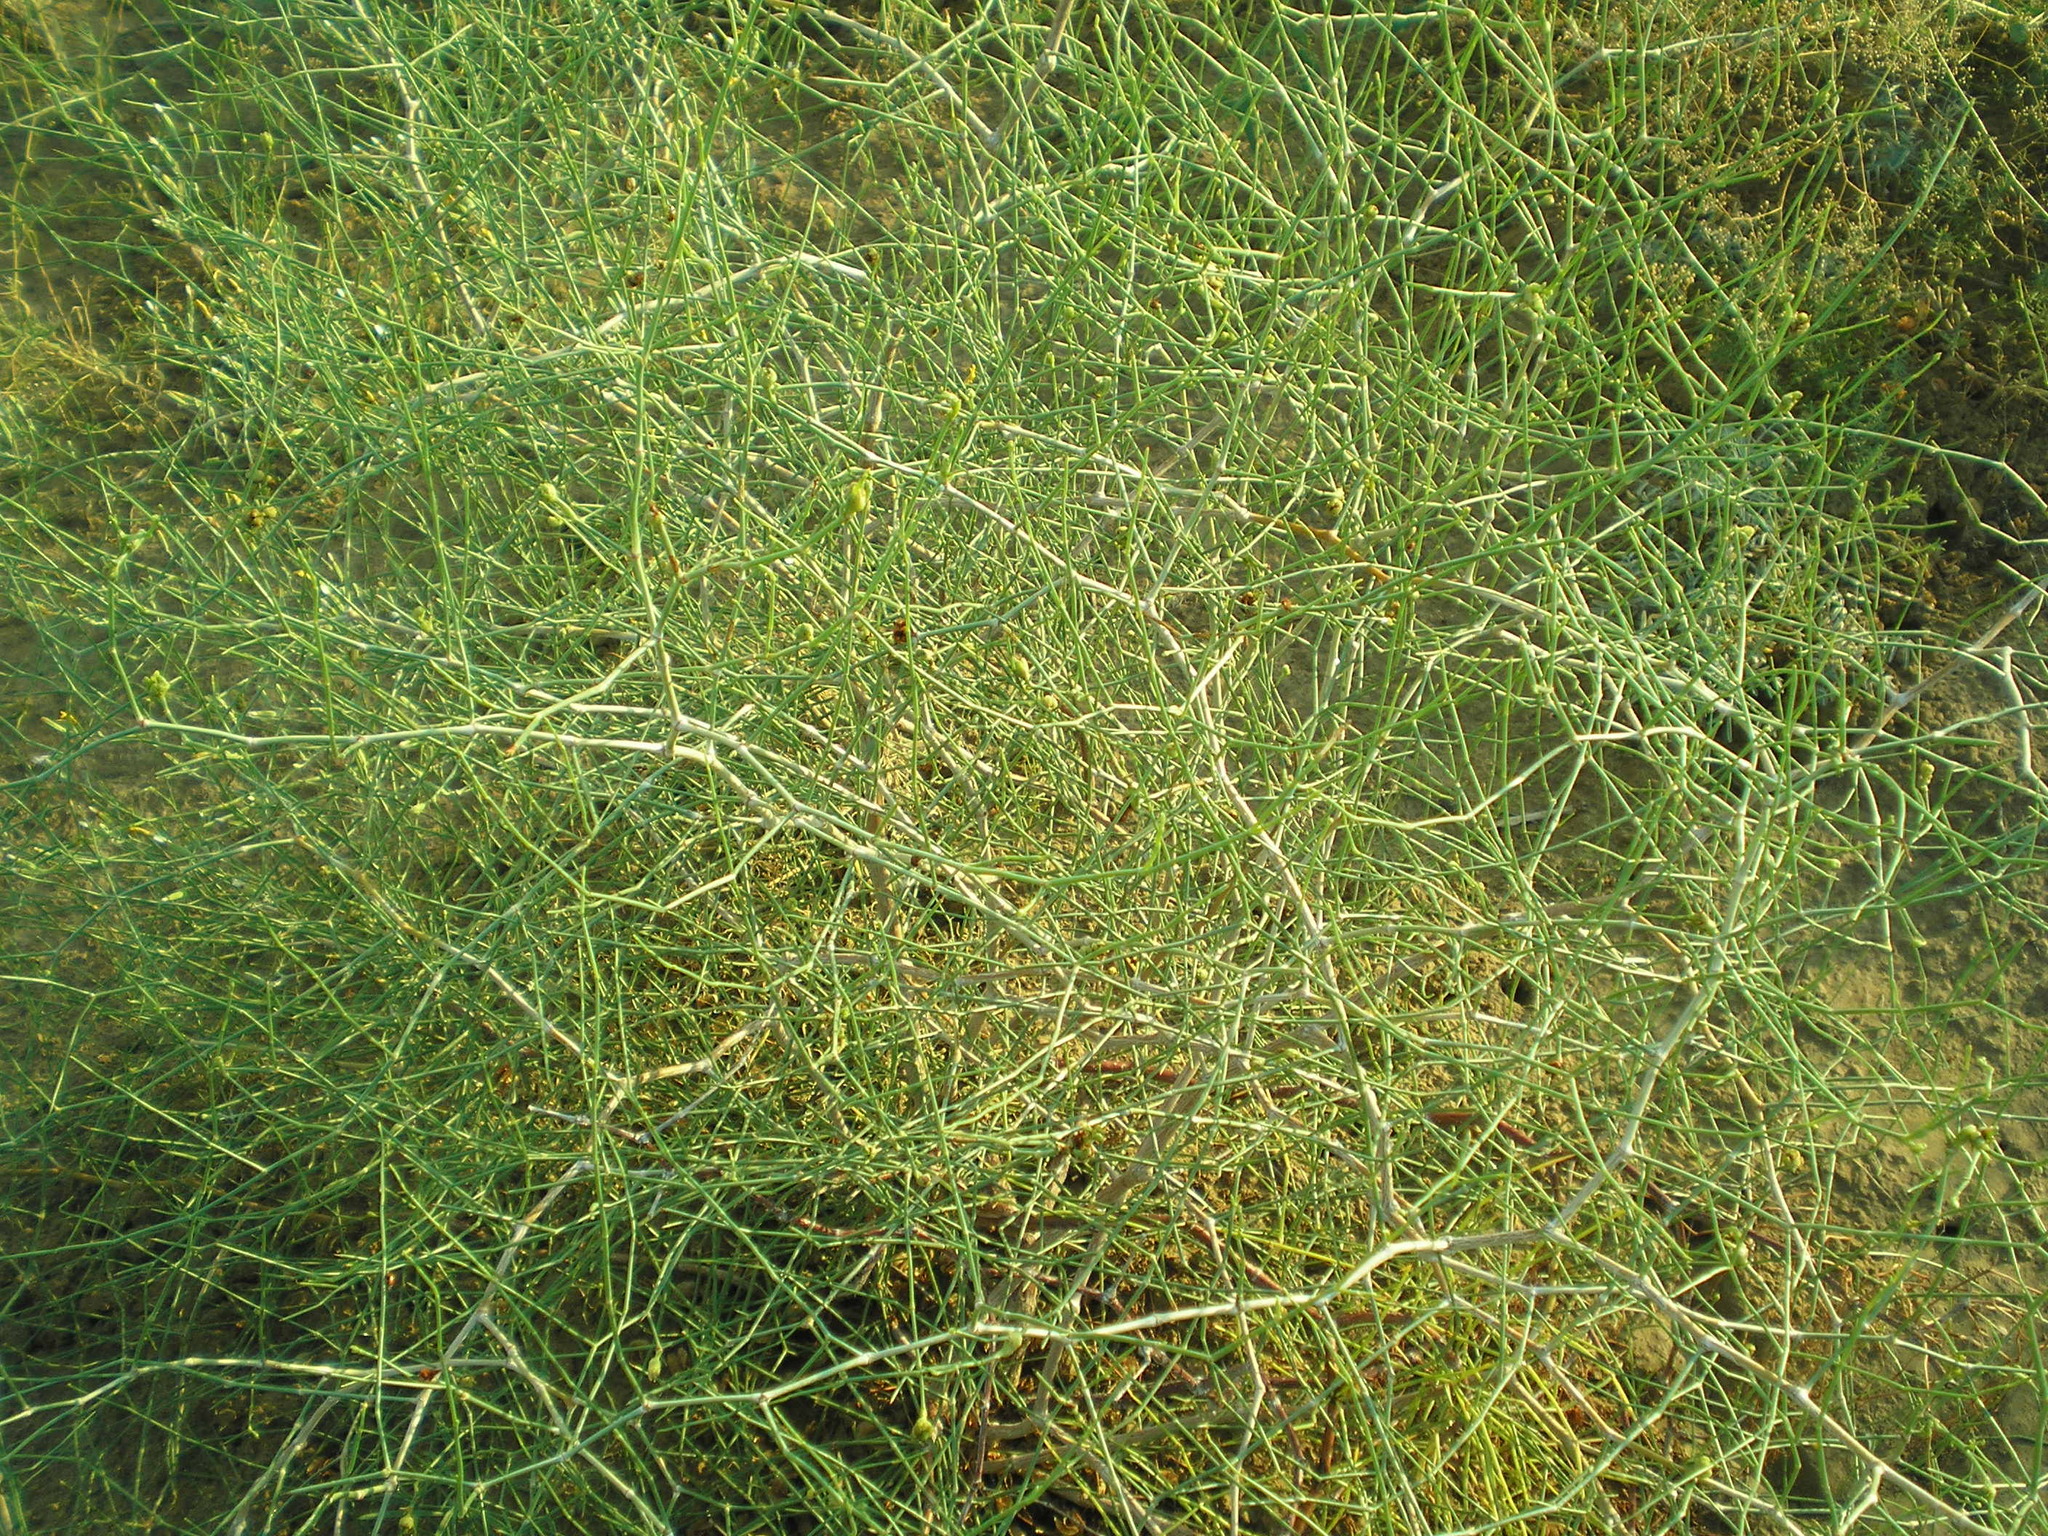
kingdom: Plantae
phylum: Tracheophyta
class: Magnoliopsida
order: Caryophyllales
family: Polygonaceae
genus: Calligonum
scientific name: Calligonum aphyllum
